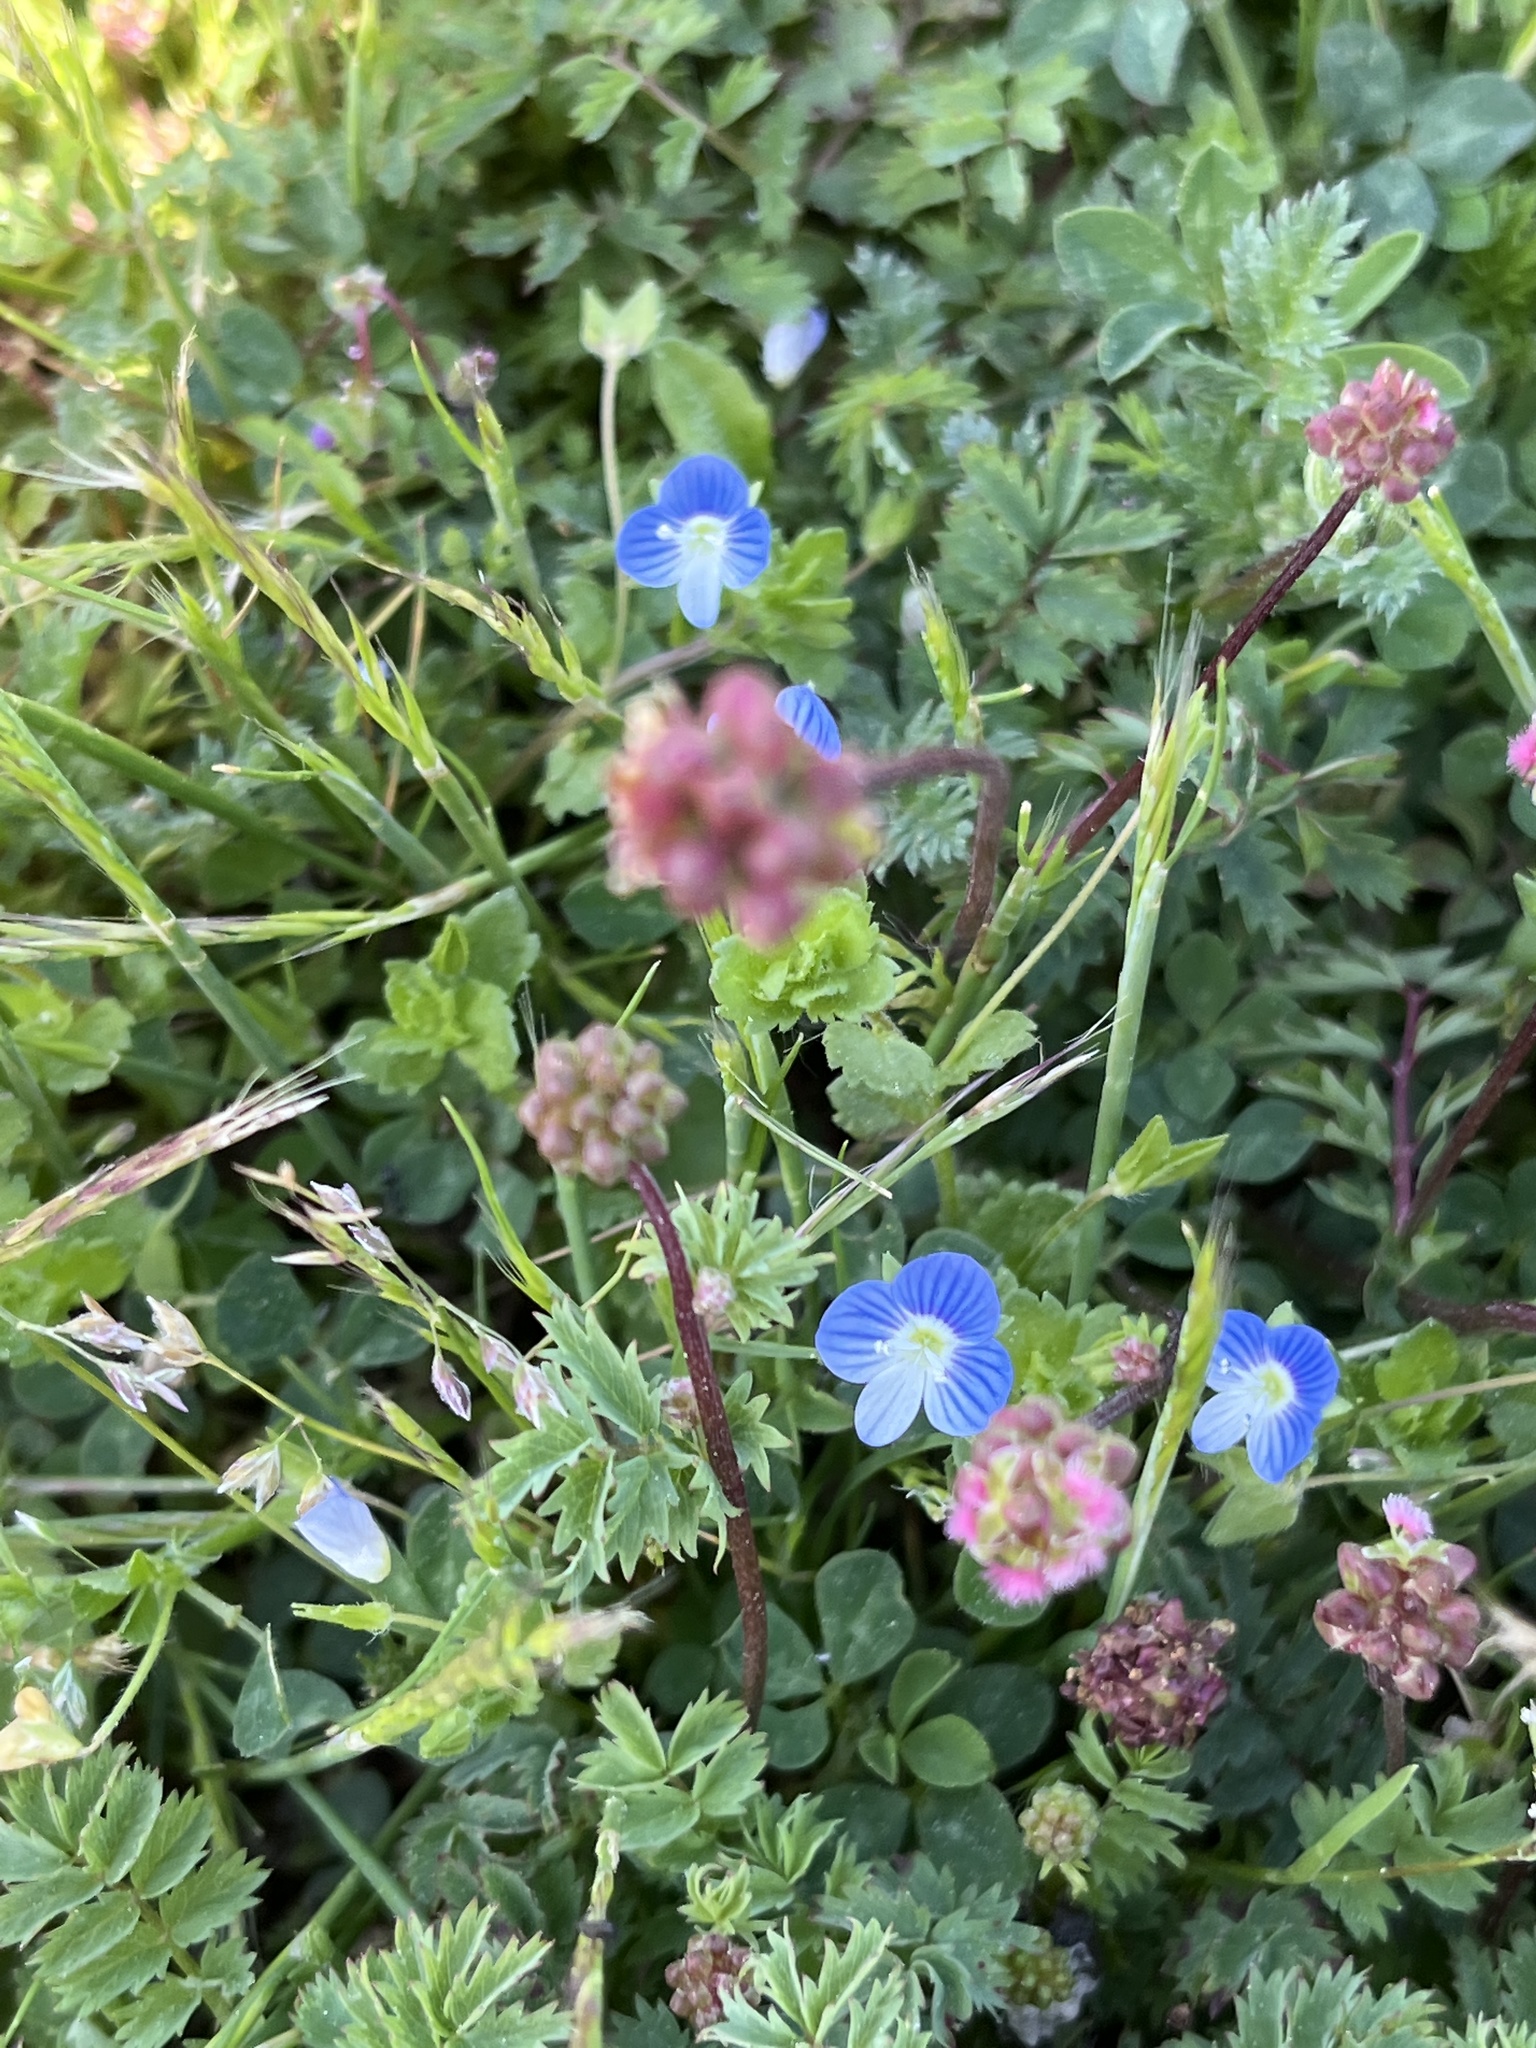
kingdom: Plantae
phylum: Tracheophyta
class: Magnoliopsida
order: Lamiales
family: Plantaginaceae
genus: Veronica
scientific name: Veronica persica
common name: Common field-speedwell
